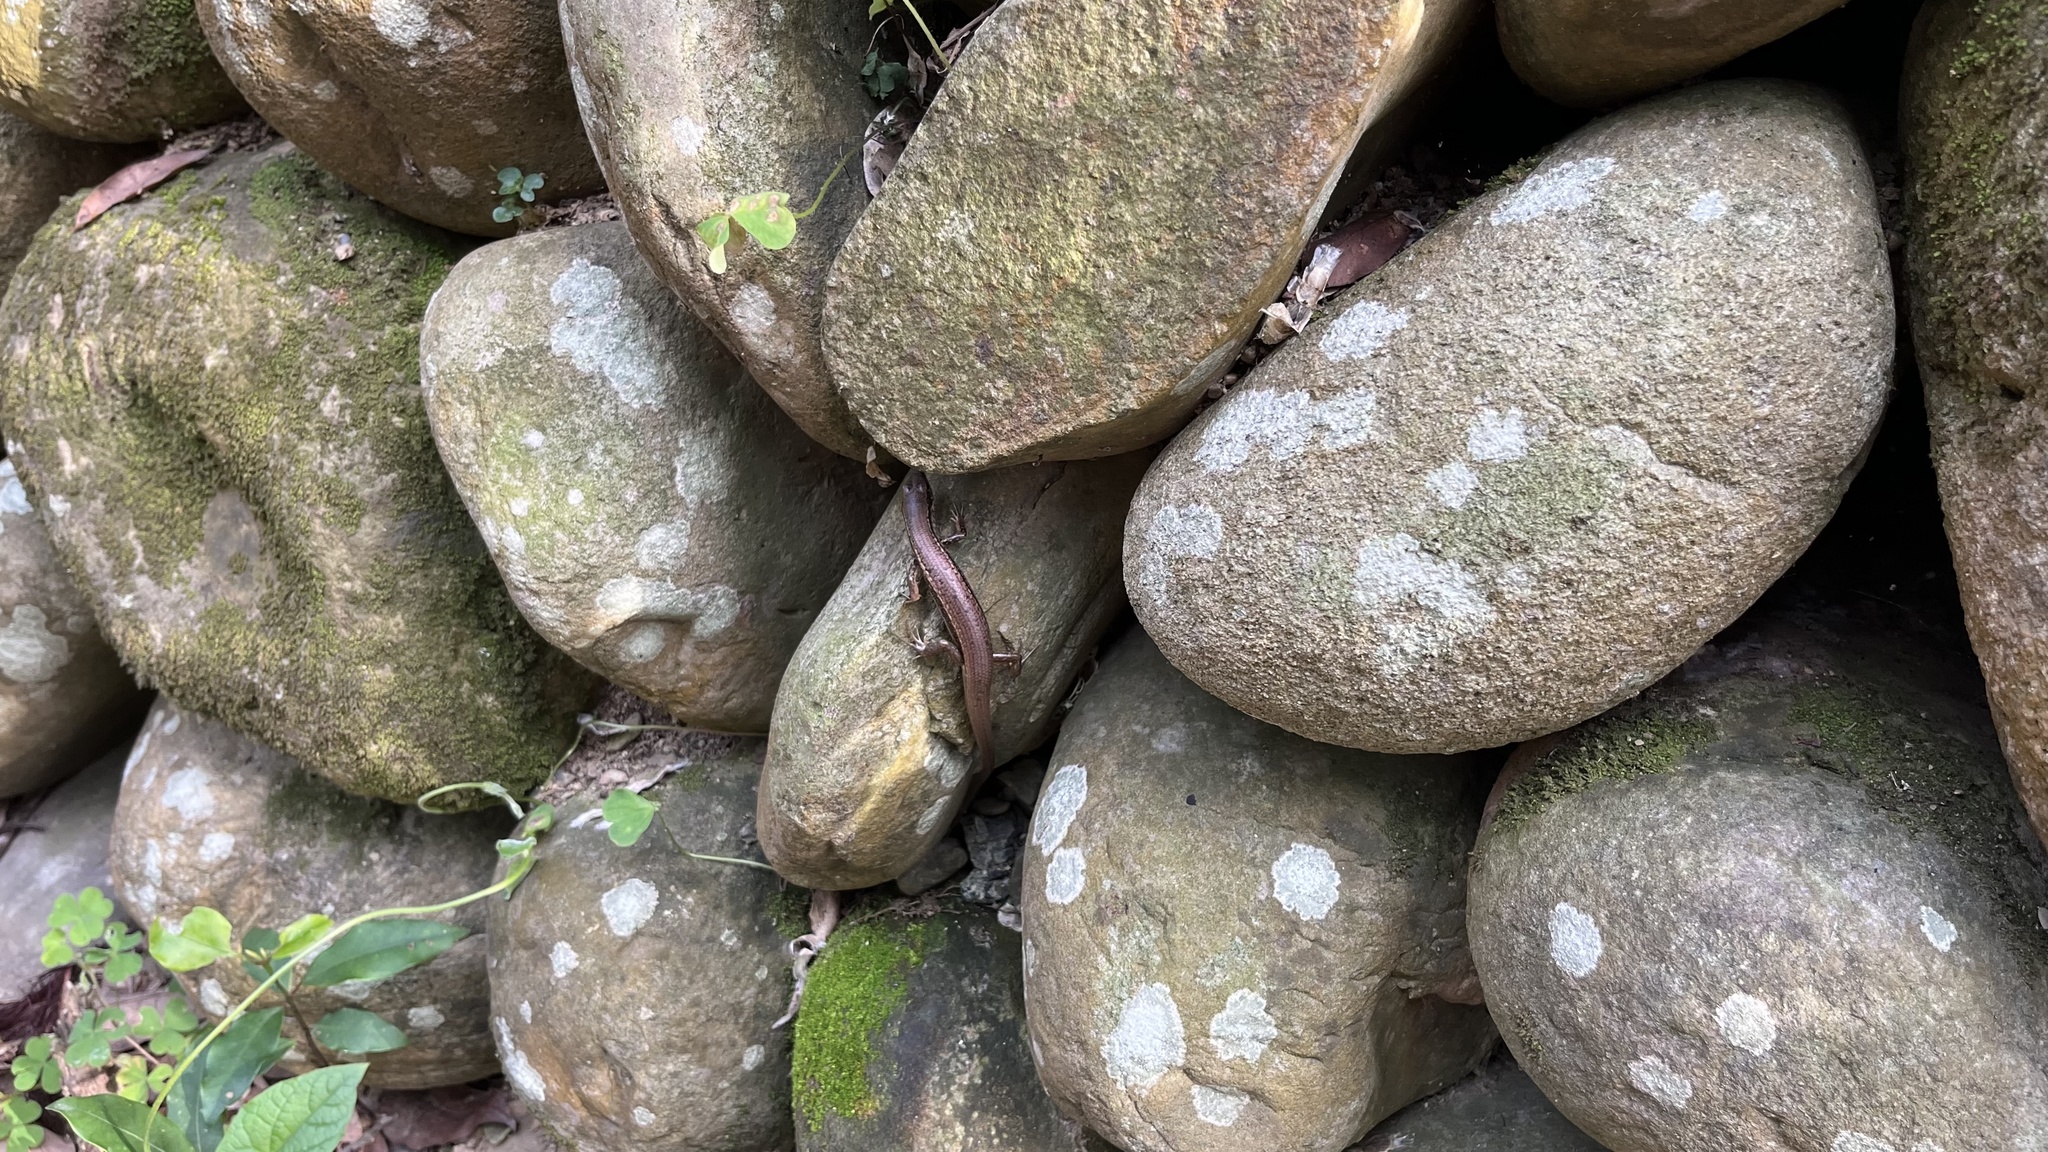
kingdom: Animalia
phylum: Chordata
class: Squamata
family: Scincidae
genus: Sphenomorphus
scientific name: Sphenomorphus indicus
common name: Himalayan forest skink
